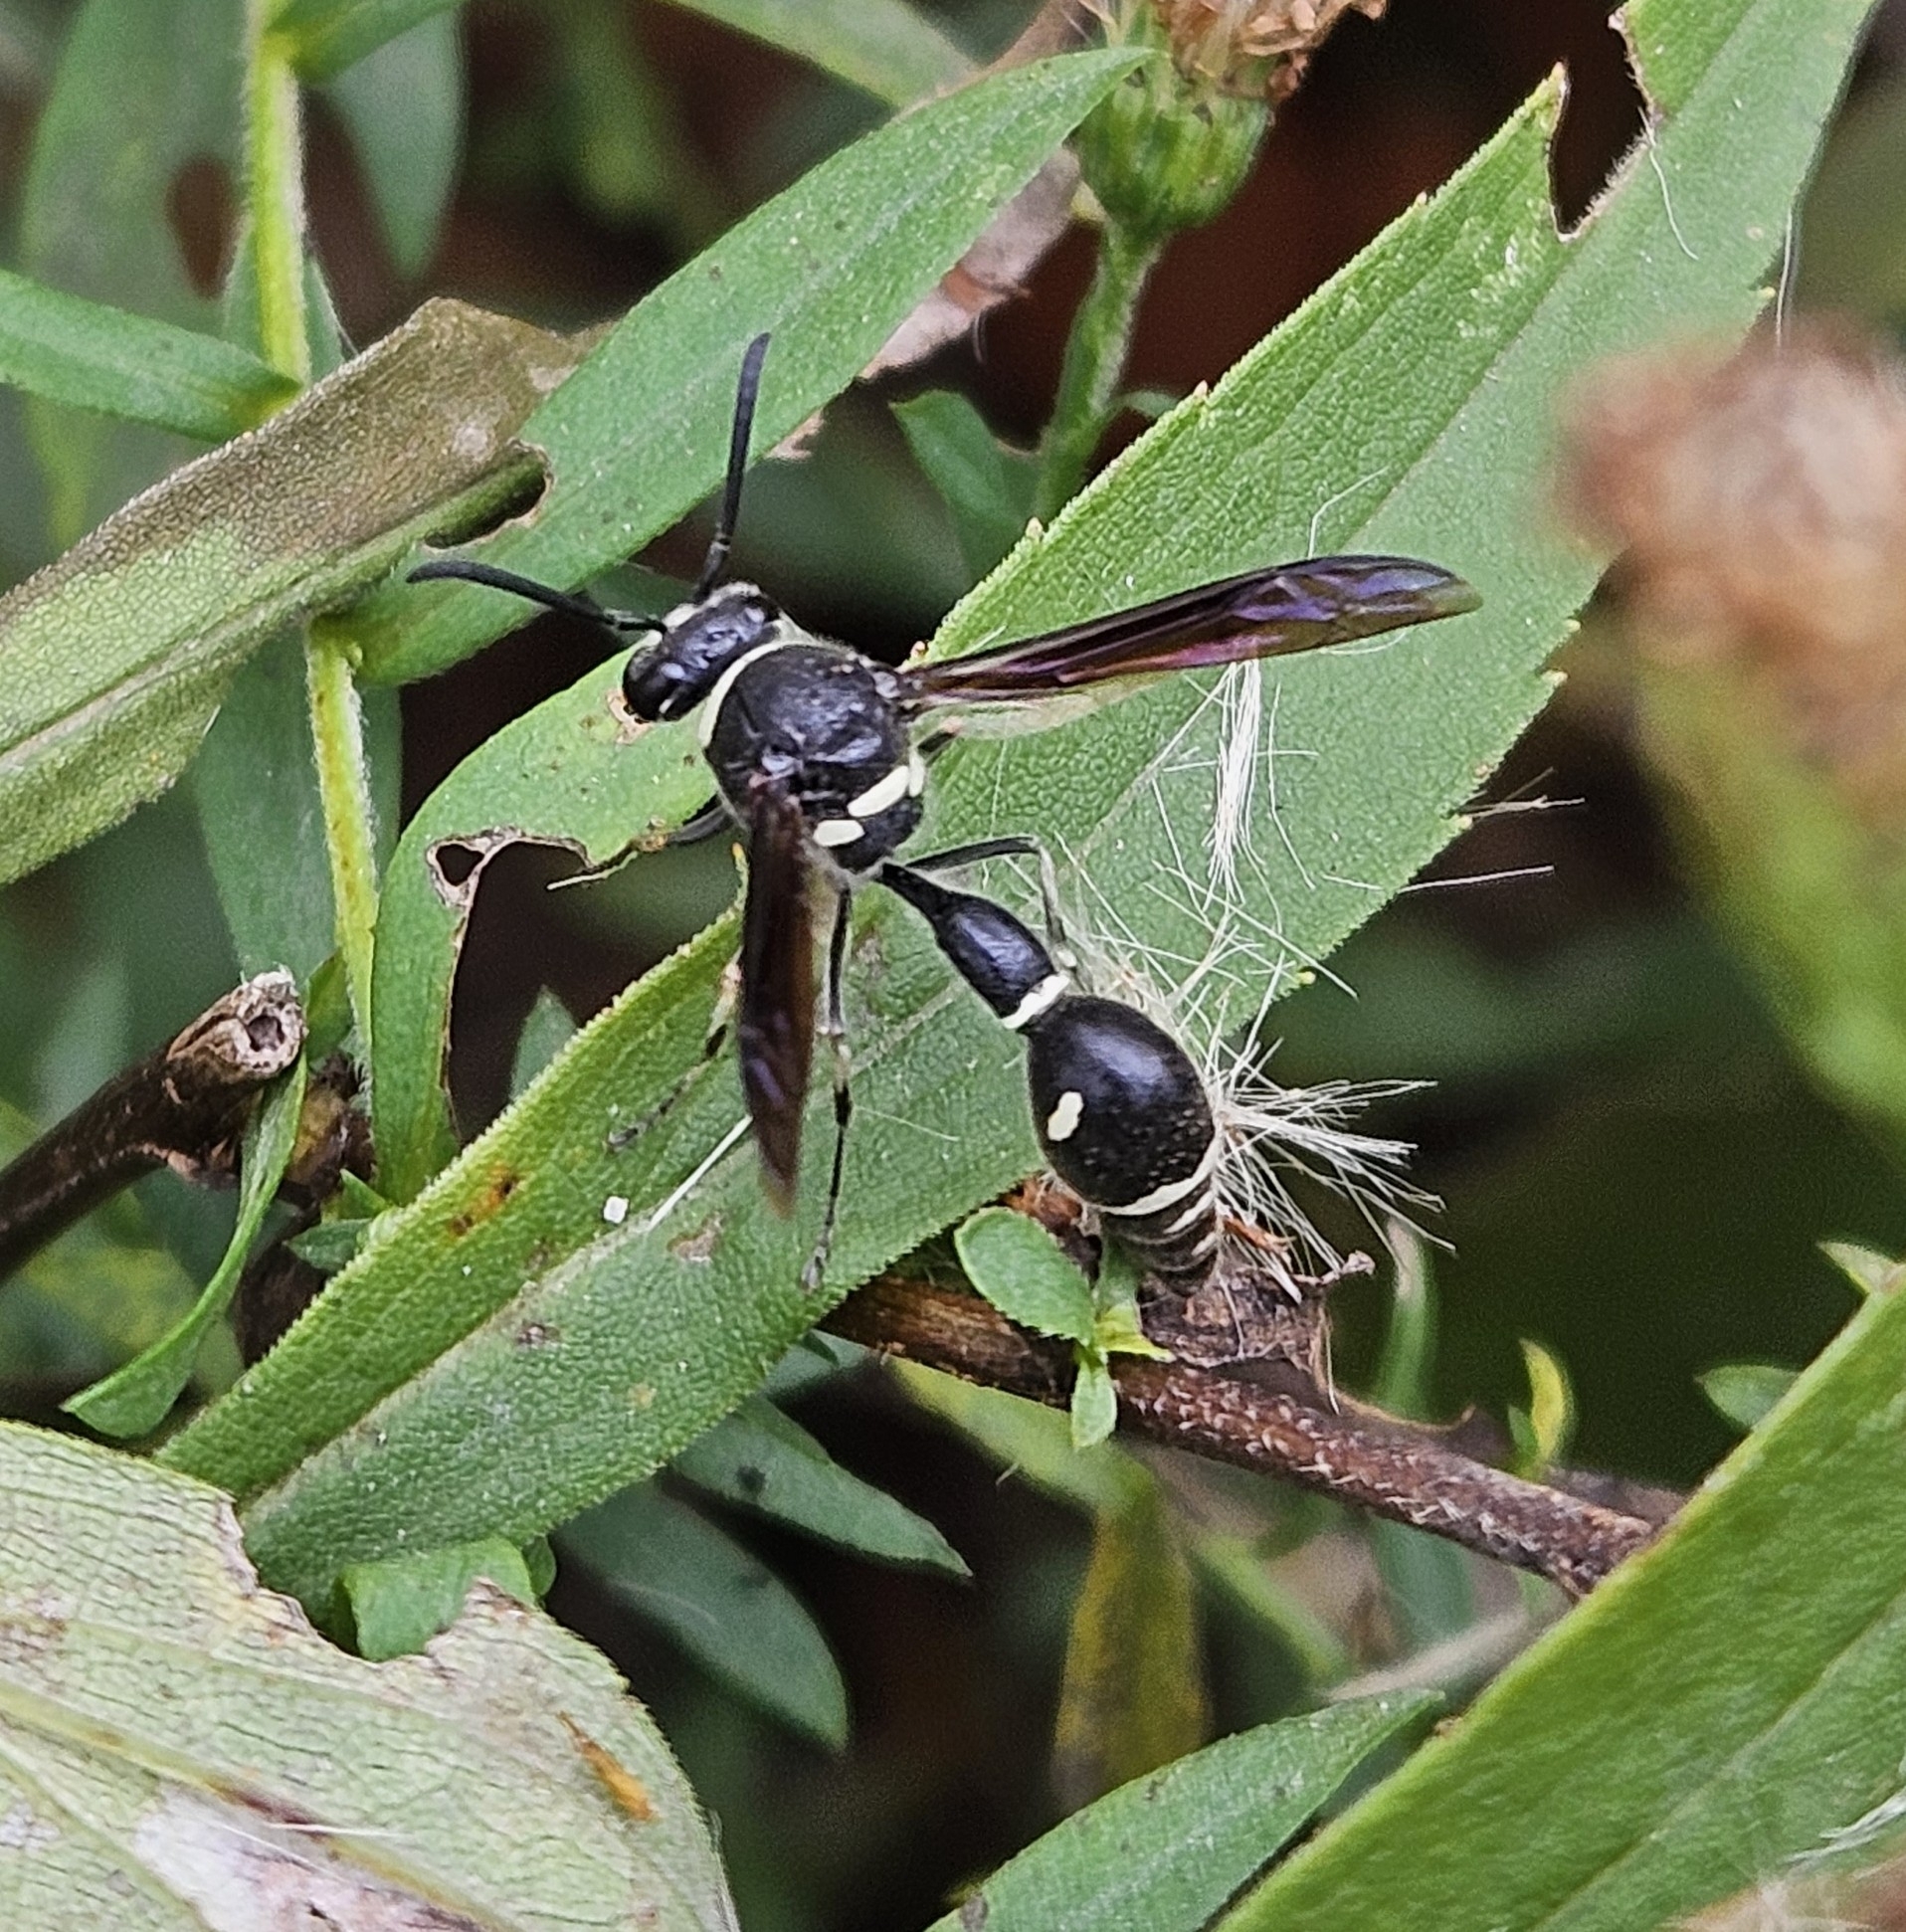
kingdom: Animalia
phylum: Arthropoda
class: Insecta
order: Hymenoptera
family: Vespidae
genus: Eumenes
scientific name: Eumenes fraternus
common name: Fraternal potter wasp
